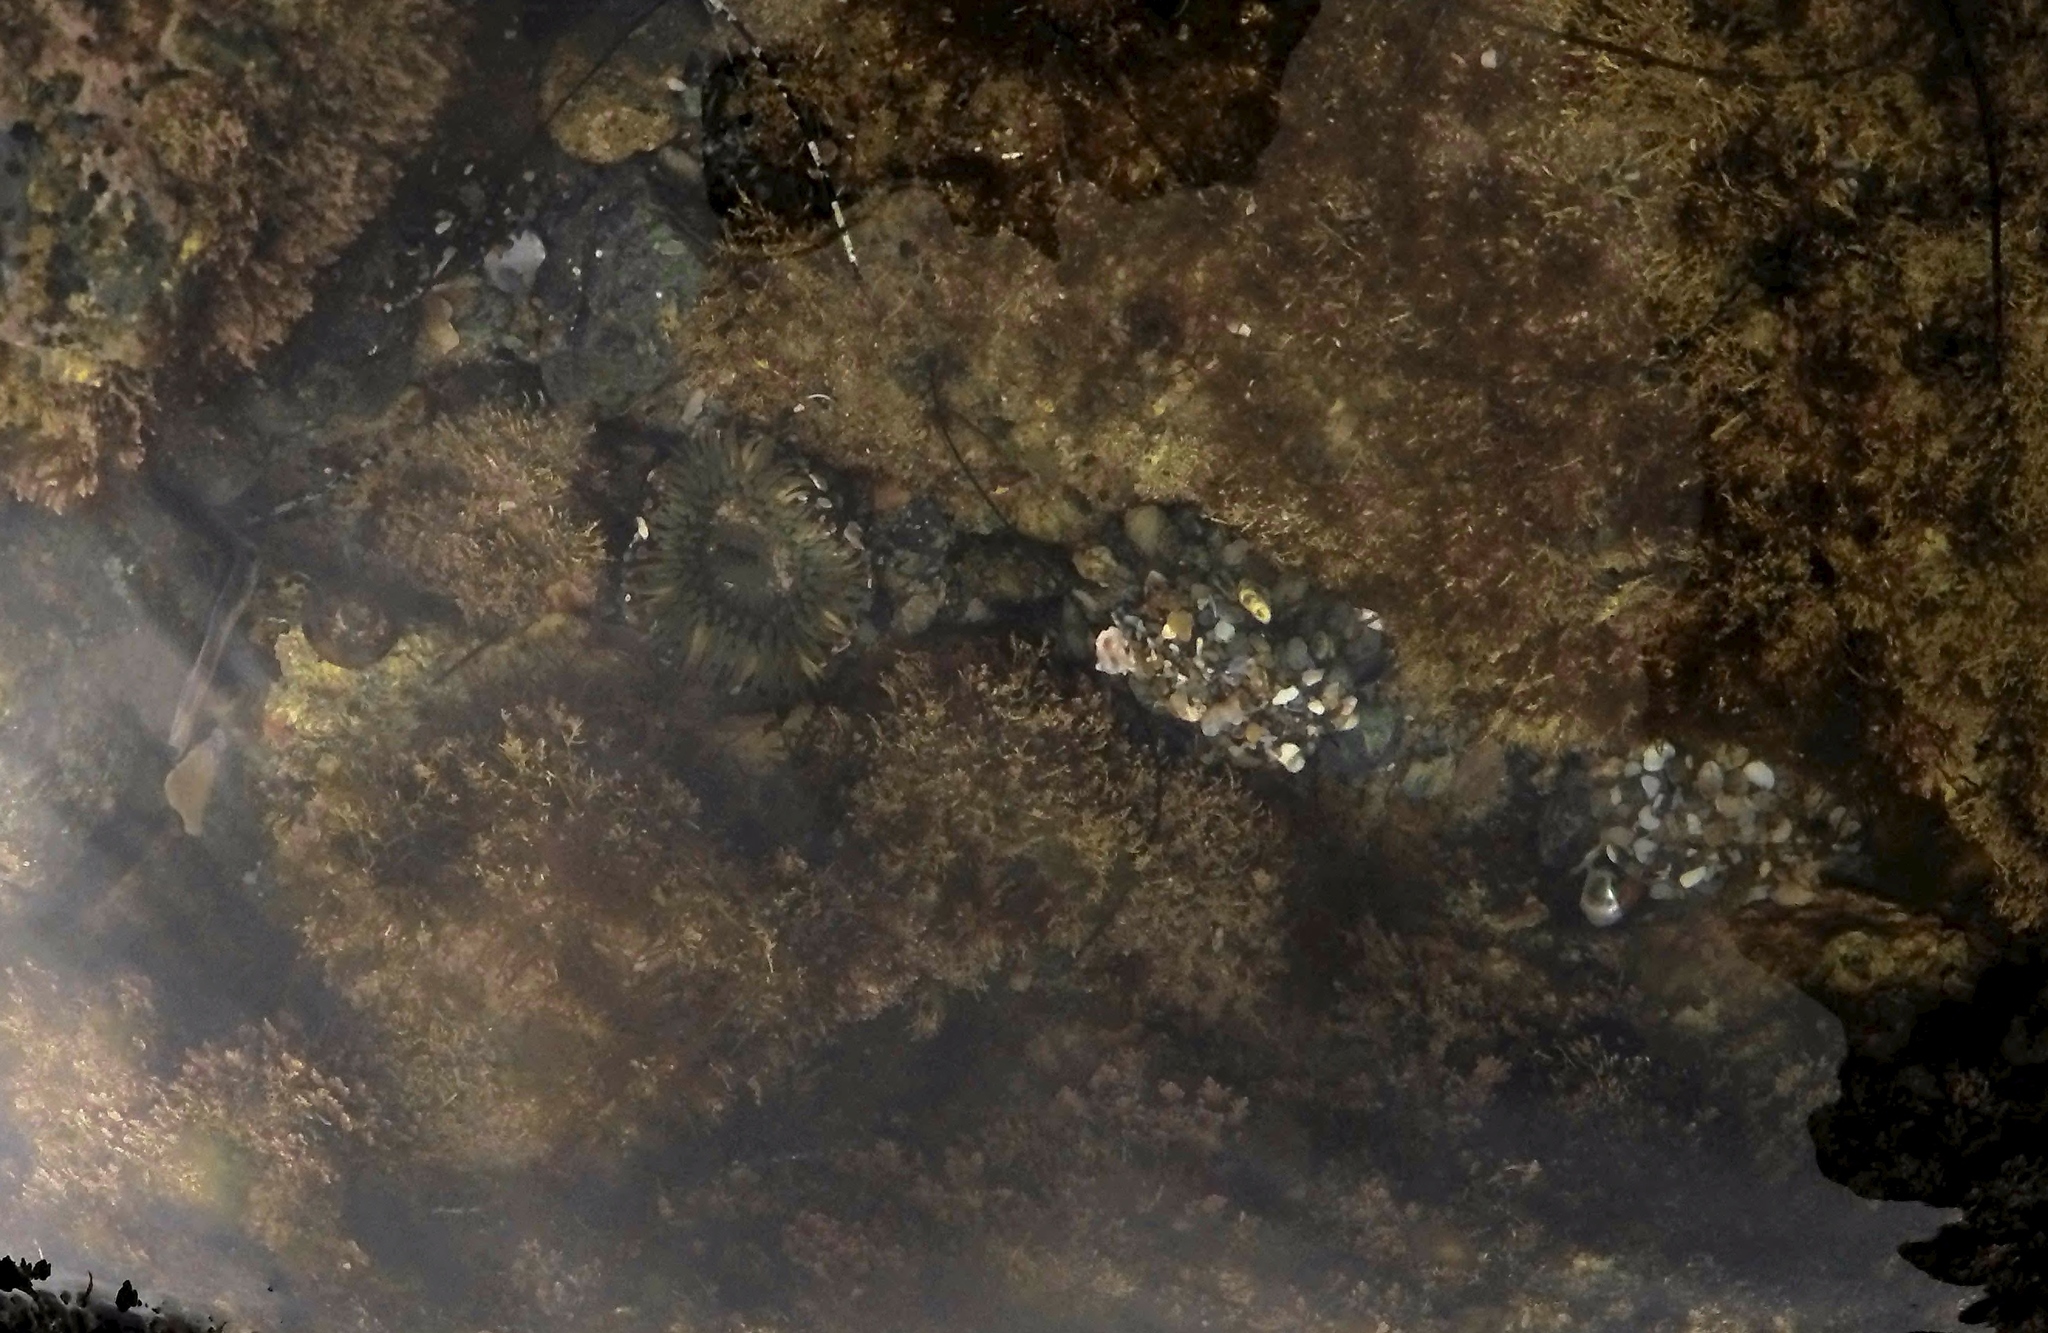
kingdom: Animalia
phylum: Cnidaria
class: Anthozoa
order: Actiniaria
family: Actiniidae
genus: Anthopleura
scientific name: Anthopleura sola
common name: Sun anemone
